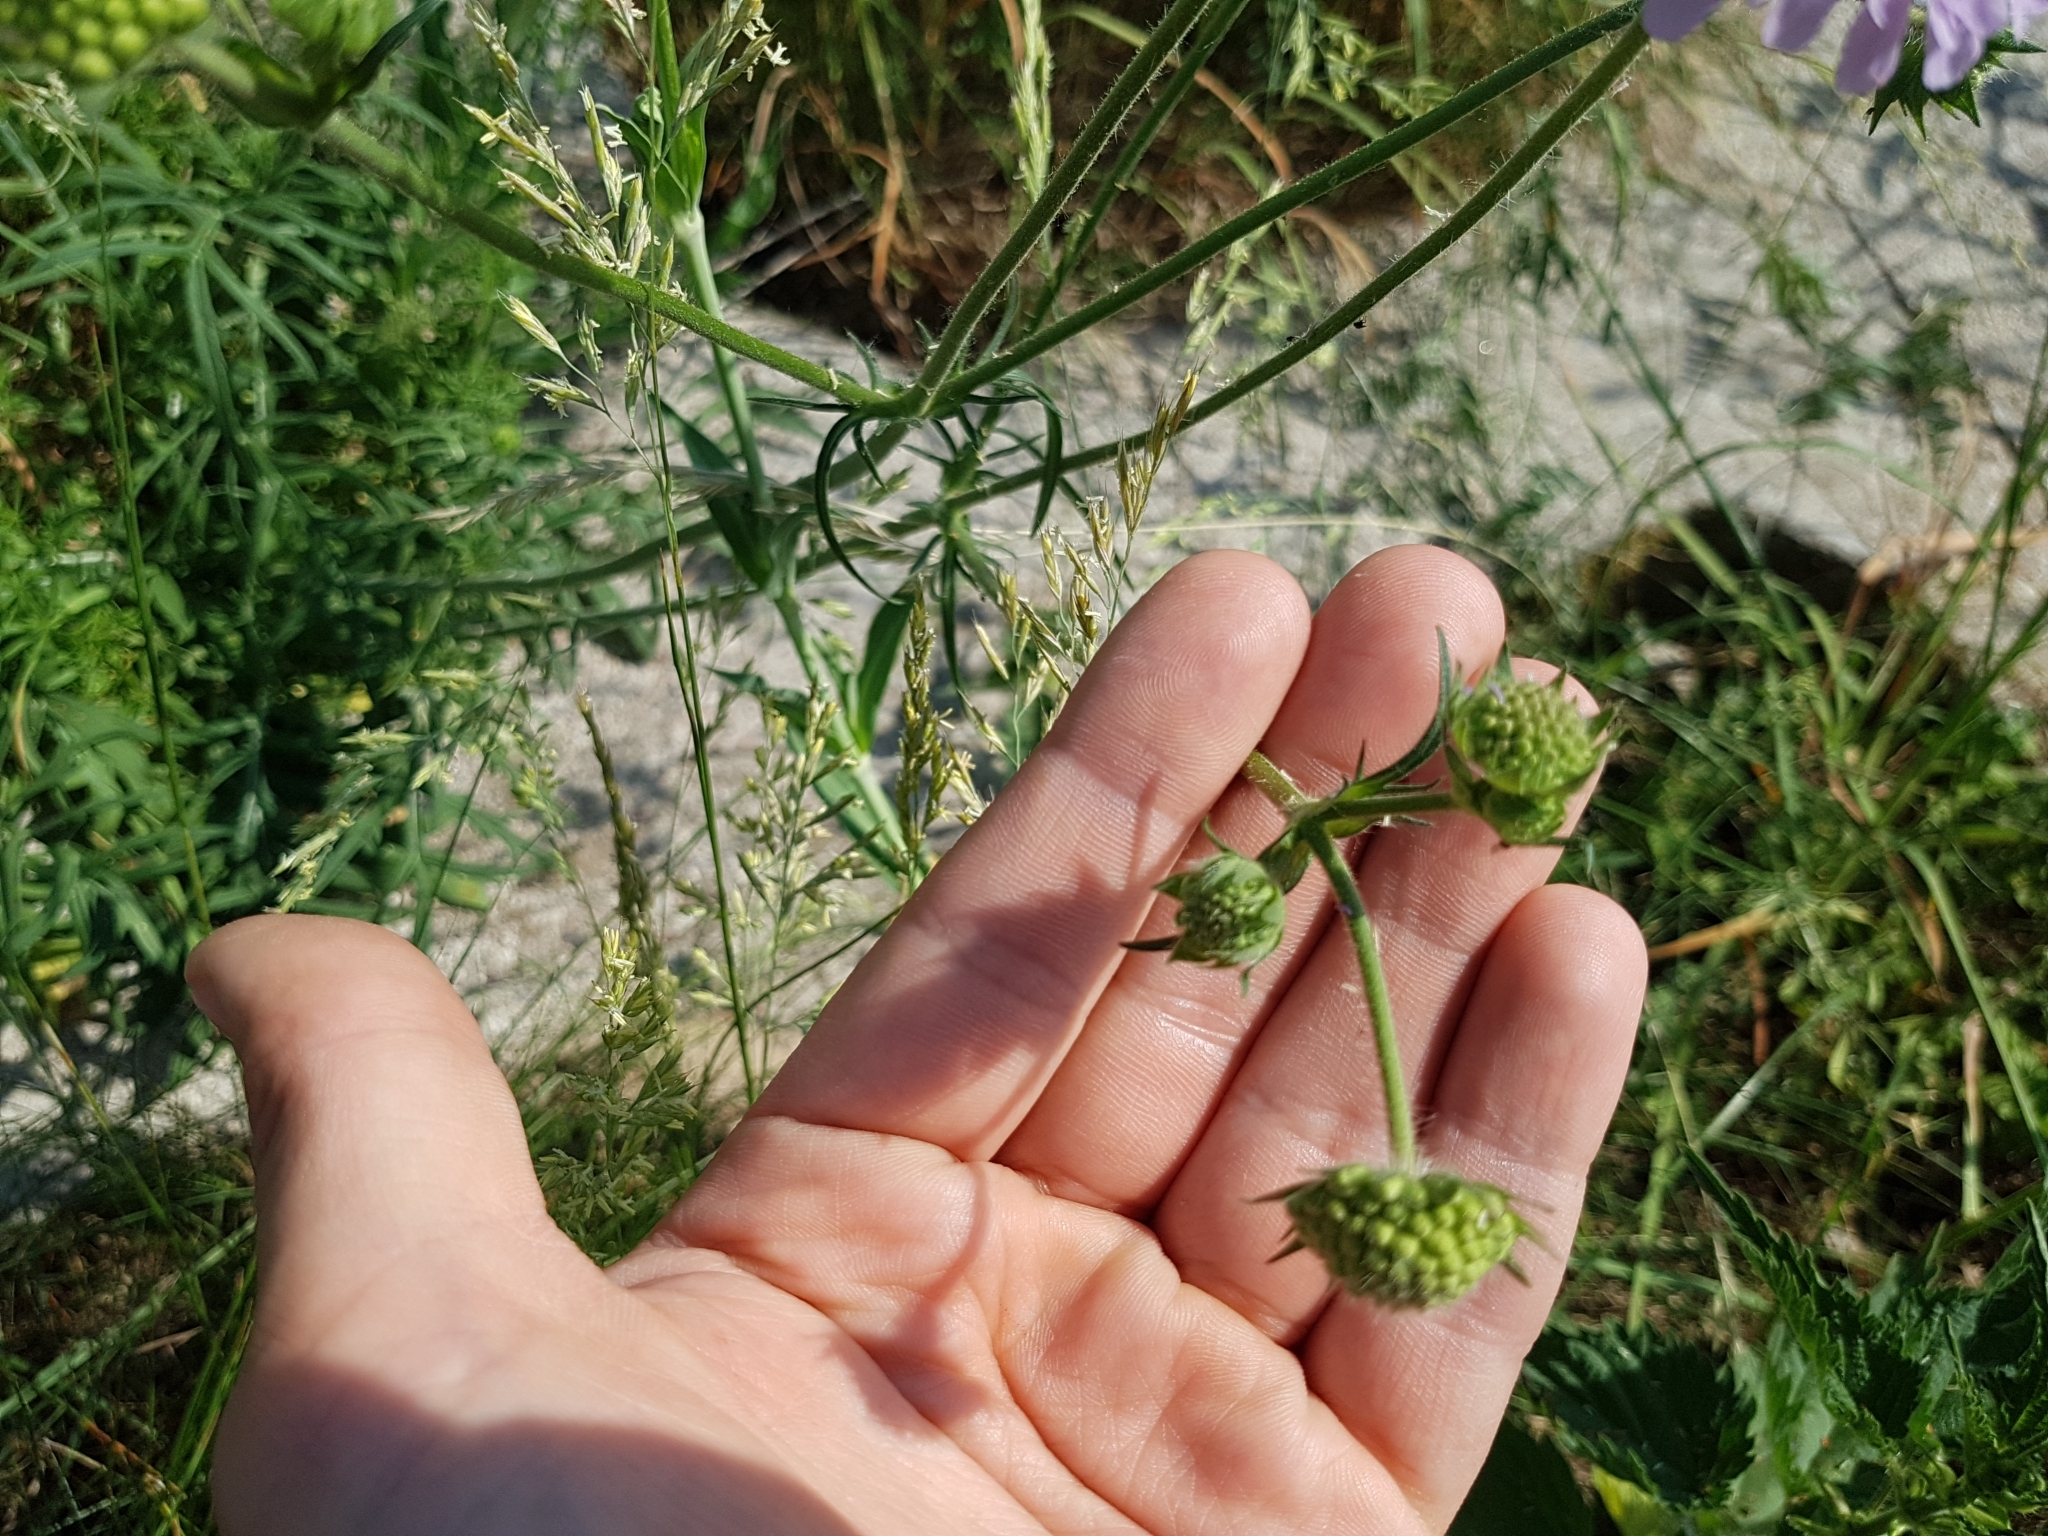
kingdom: Plantae
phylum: Tracheophyta
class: Magnoliopsida
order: Dipsacales
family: Caprifoliaceae
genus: Knautia
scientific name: Knautia arvensis
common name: Field scabiosa
